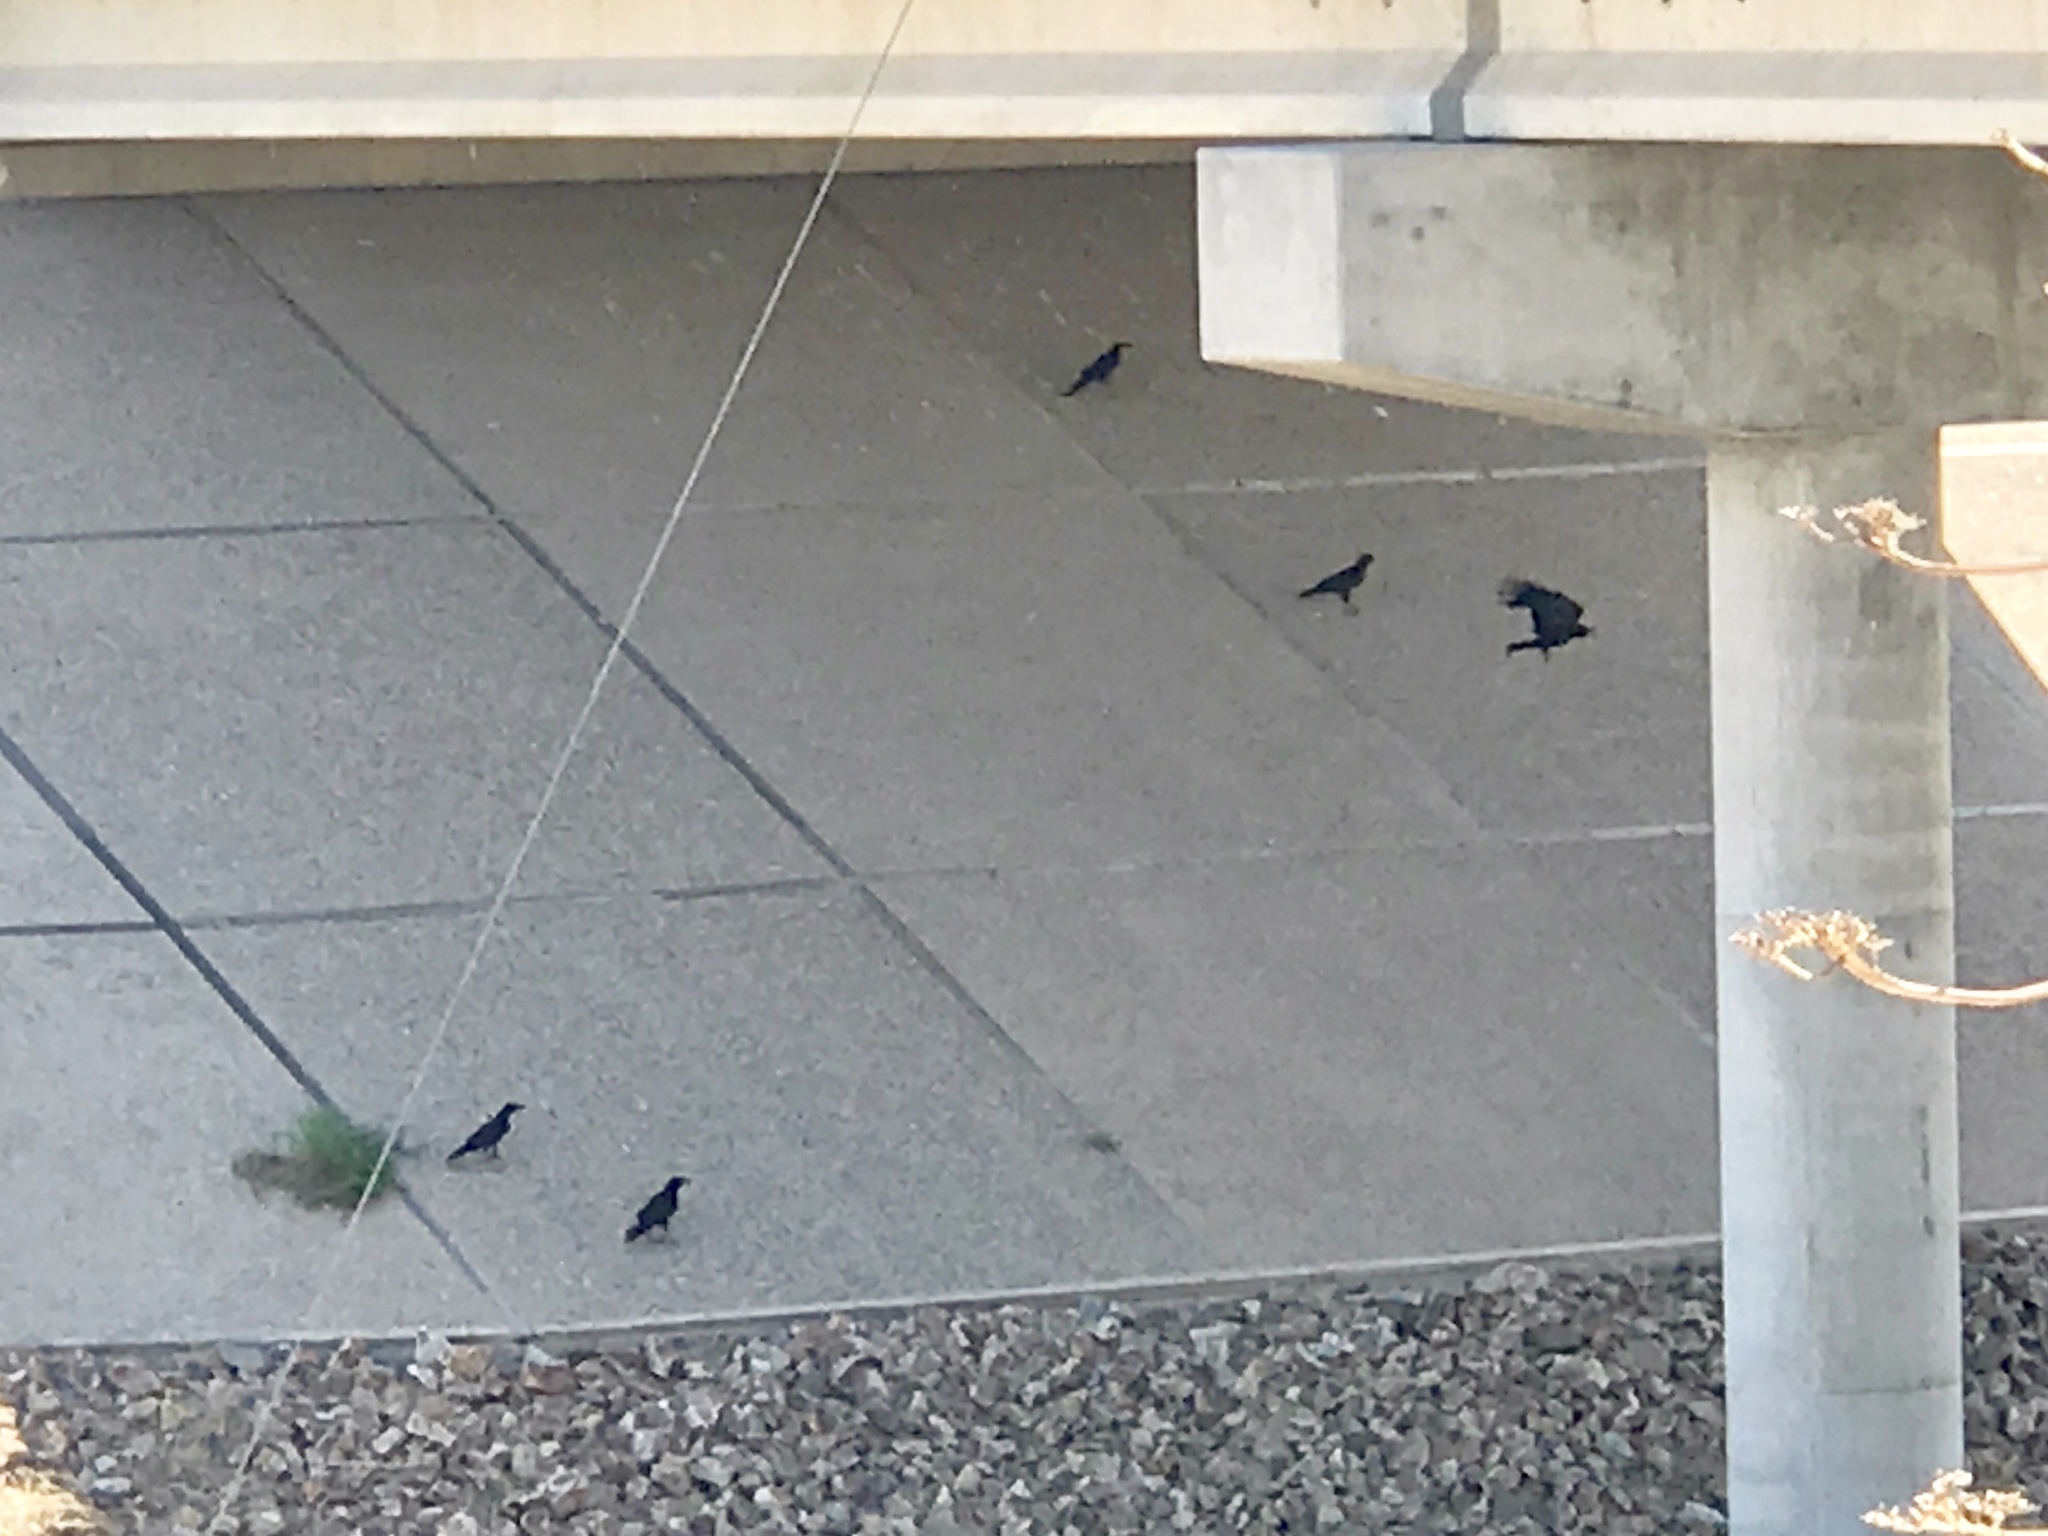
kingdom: Animalia
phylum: Chordata
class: Aves
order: Passeriformes
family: Corvidae
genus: Corvus
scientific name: Corvus corax
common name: Common raven
